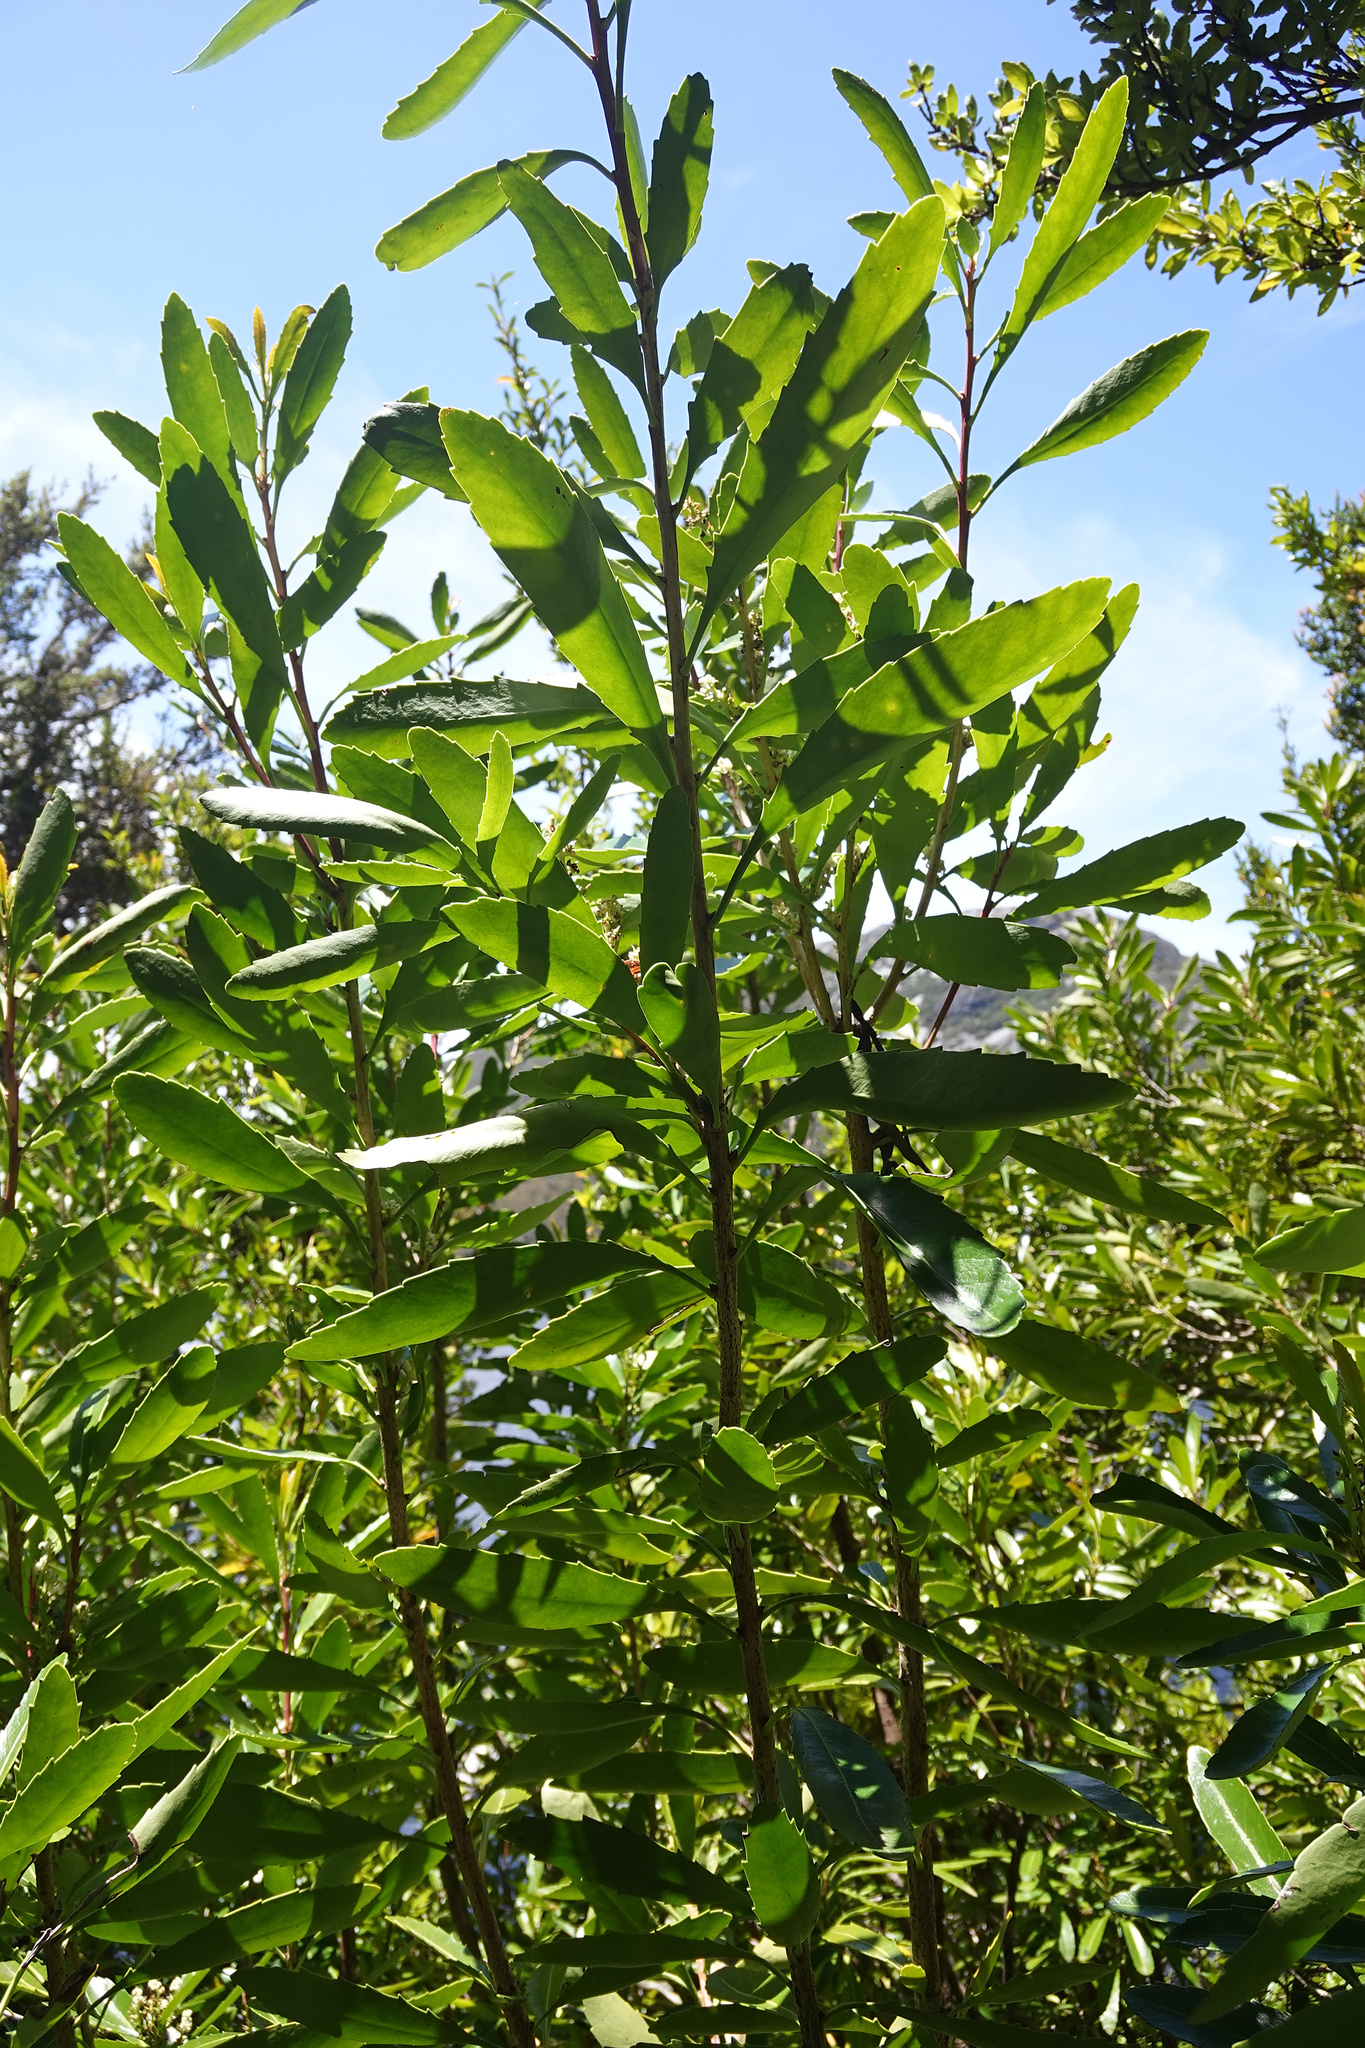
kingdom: Plantae
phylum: Tracheophyta
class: Magnoliopsida
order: Proteales
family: Proteaceae
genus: Cenarrhenes
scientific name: Cenarrhenes nitida
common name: Native plum
